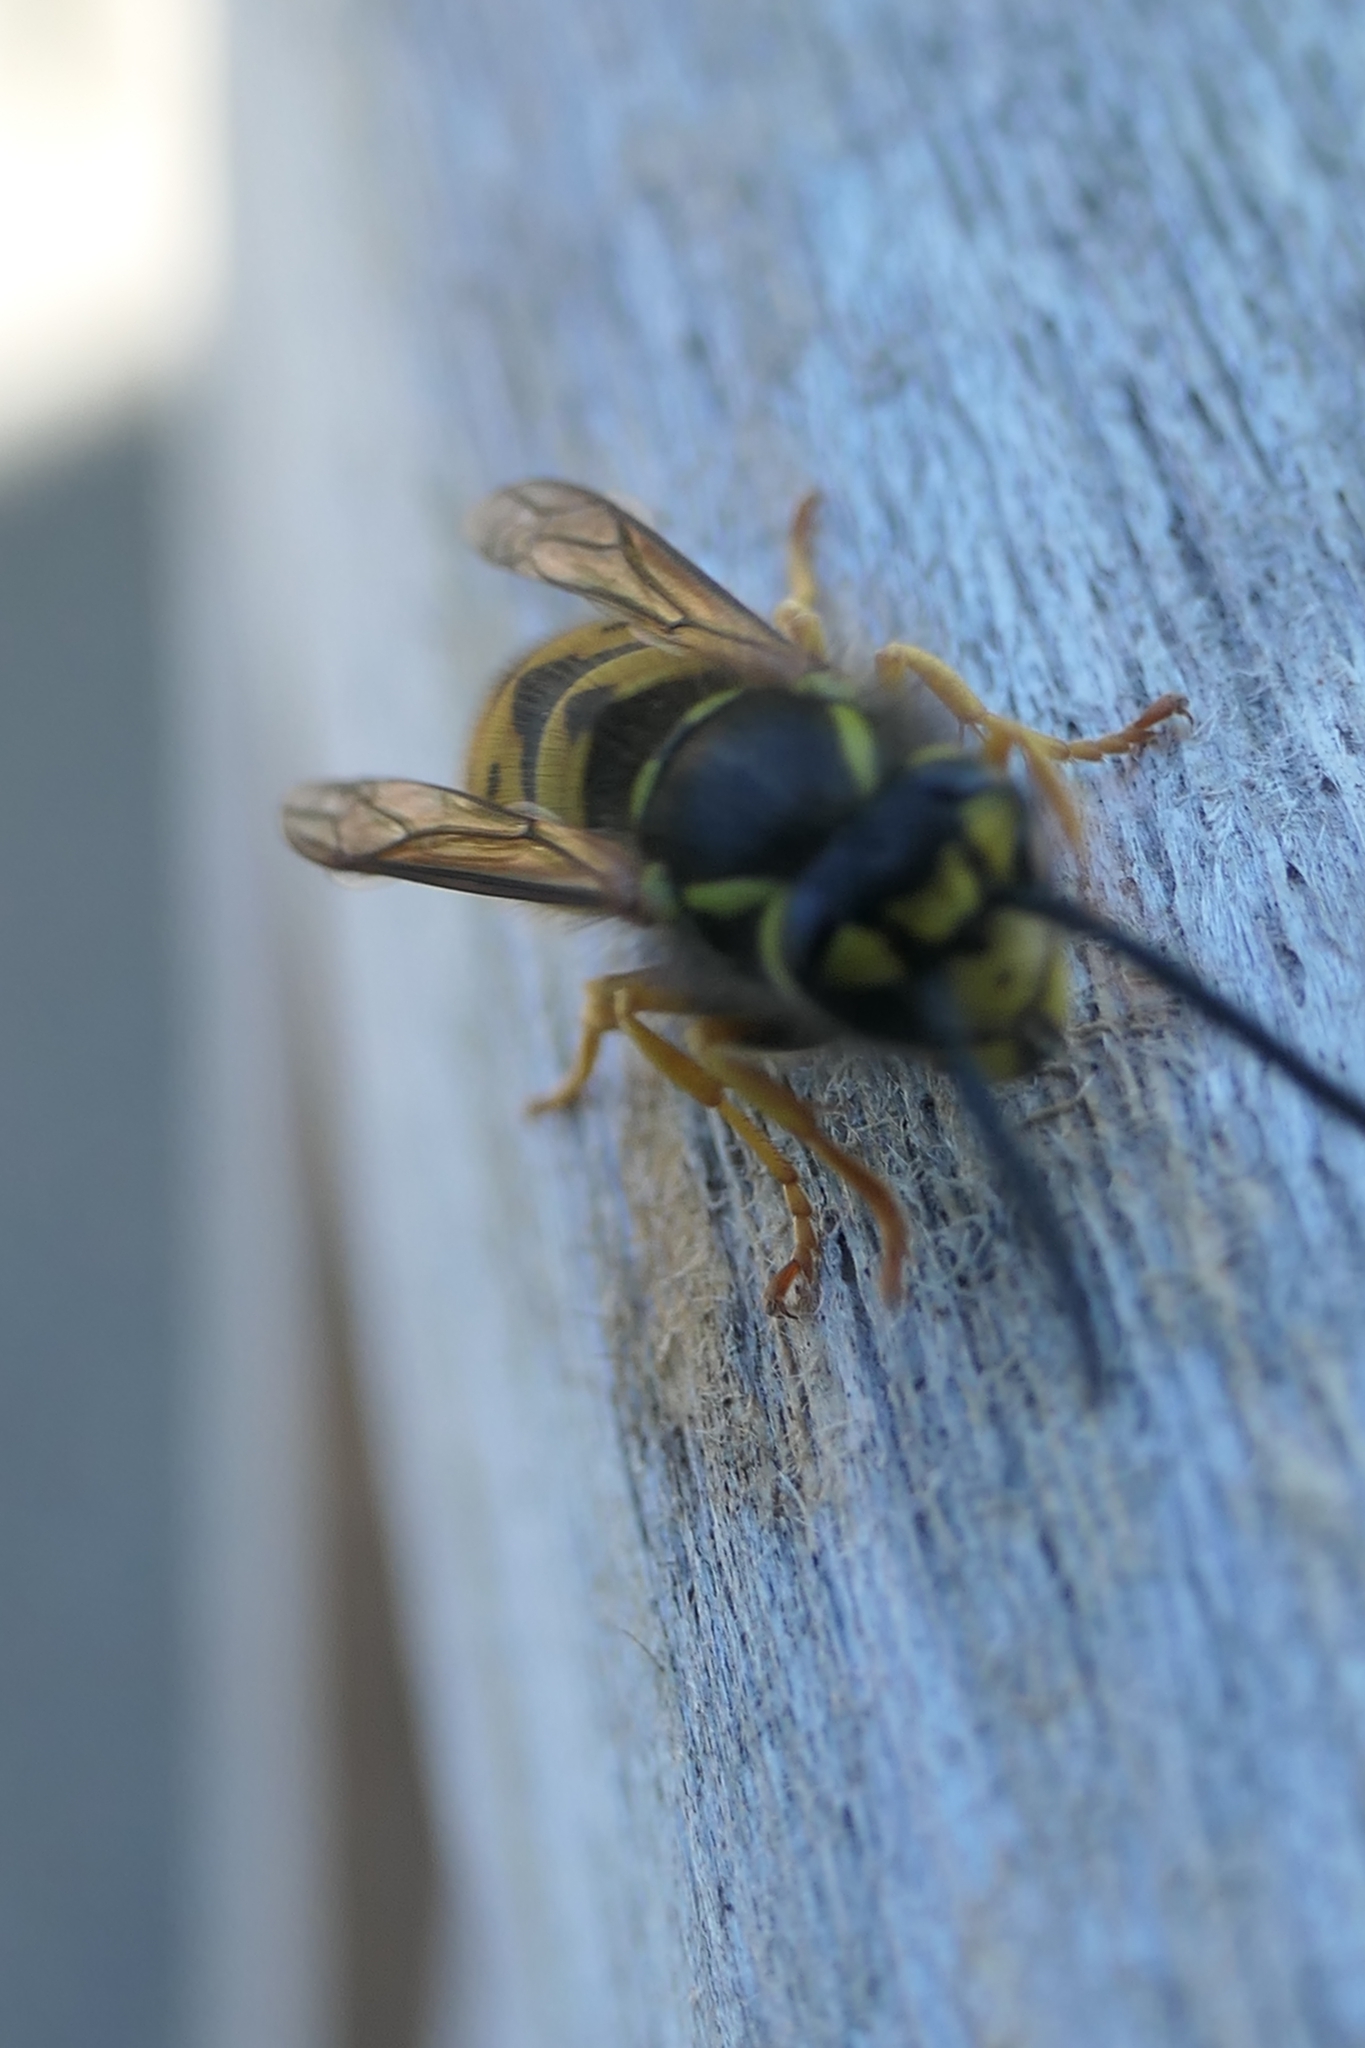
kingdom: Animalia
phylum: Arthropoda
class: Insecta
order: Hymenoptera
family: Vespidae
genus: Vespula
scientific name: Vespula germanica
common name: German wasp
